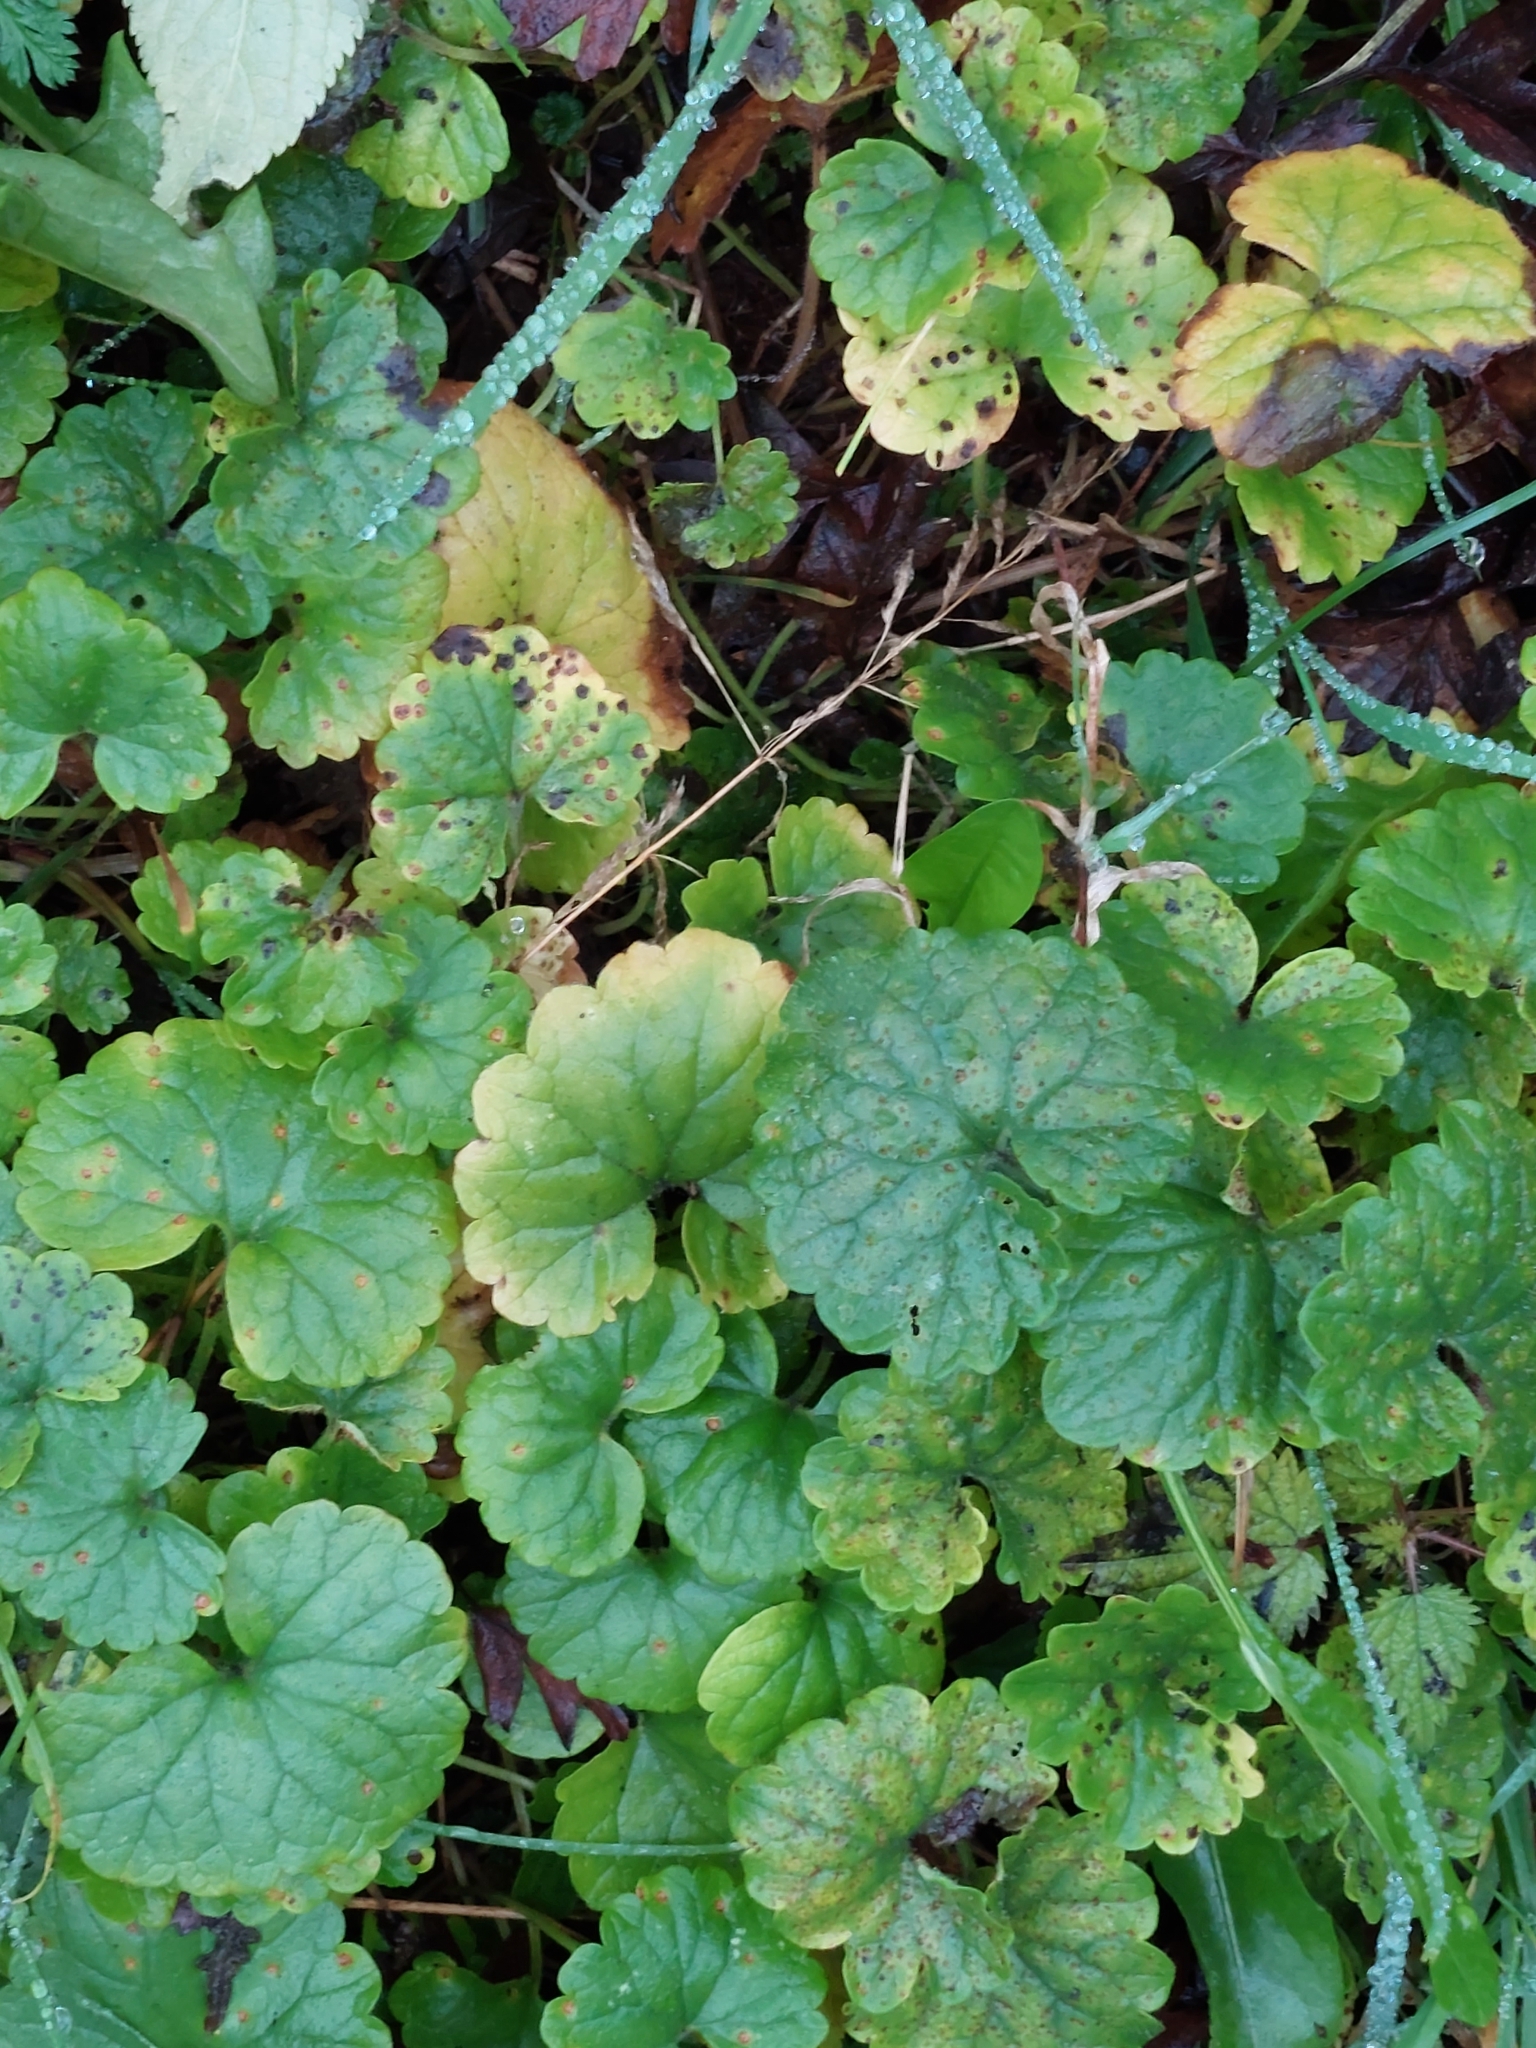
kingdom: Plantae
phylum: Tracheophyta
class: Magnoliopsida
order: Lamiales
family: Lamiaceae
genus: Glechoma
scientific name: Glechoma hederacea
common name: Ground ivy
